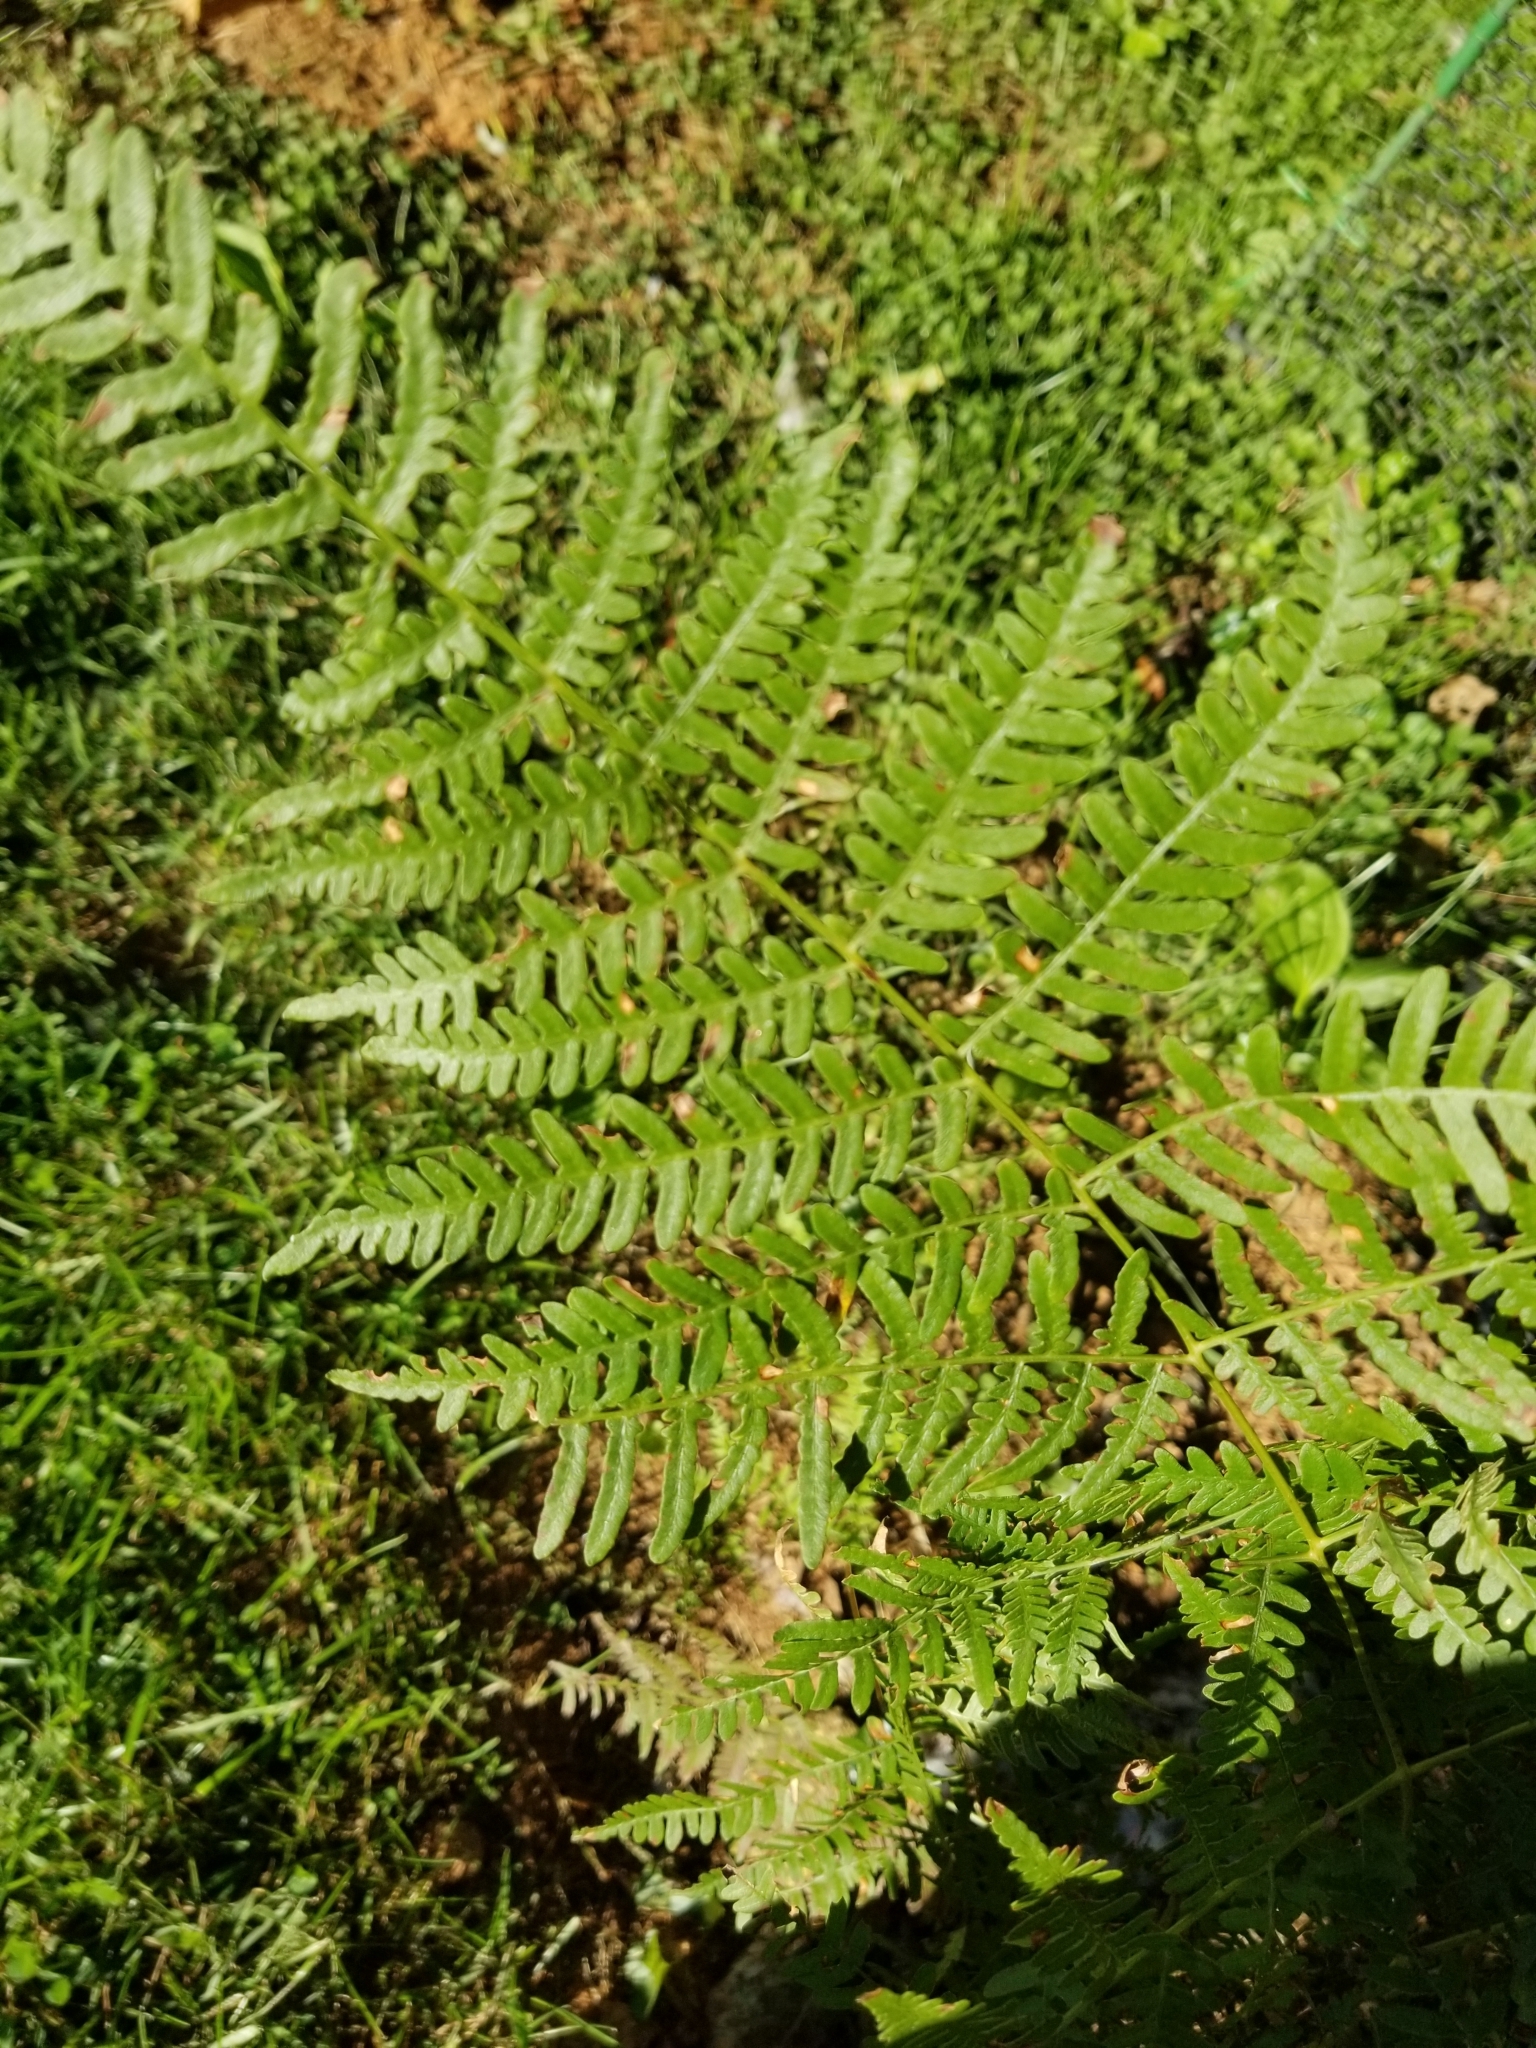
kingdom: Plantae
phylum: Tracheophyta
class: Polypodiopsida
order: Polypodiales
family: Dennstaedtiaceae
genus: Pteridium
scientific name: Pteridium aquilinum
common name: Bracken
